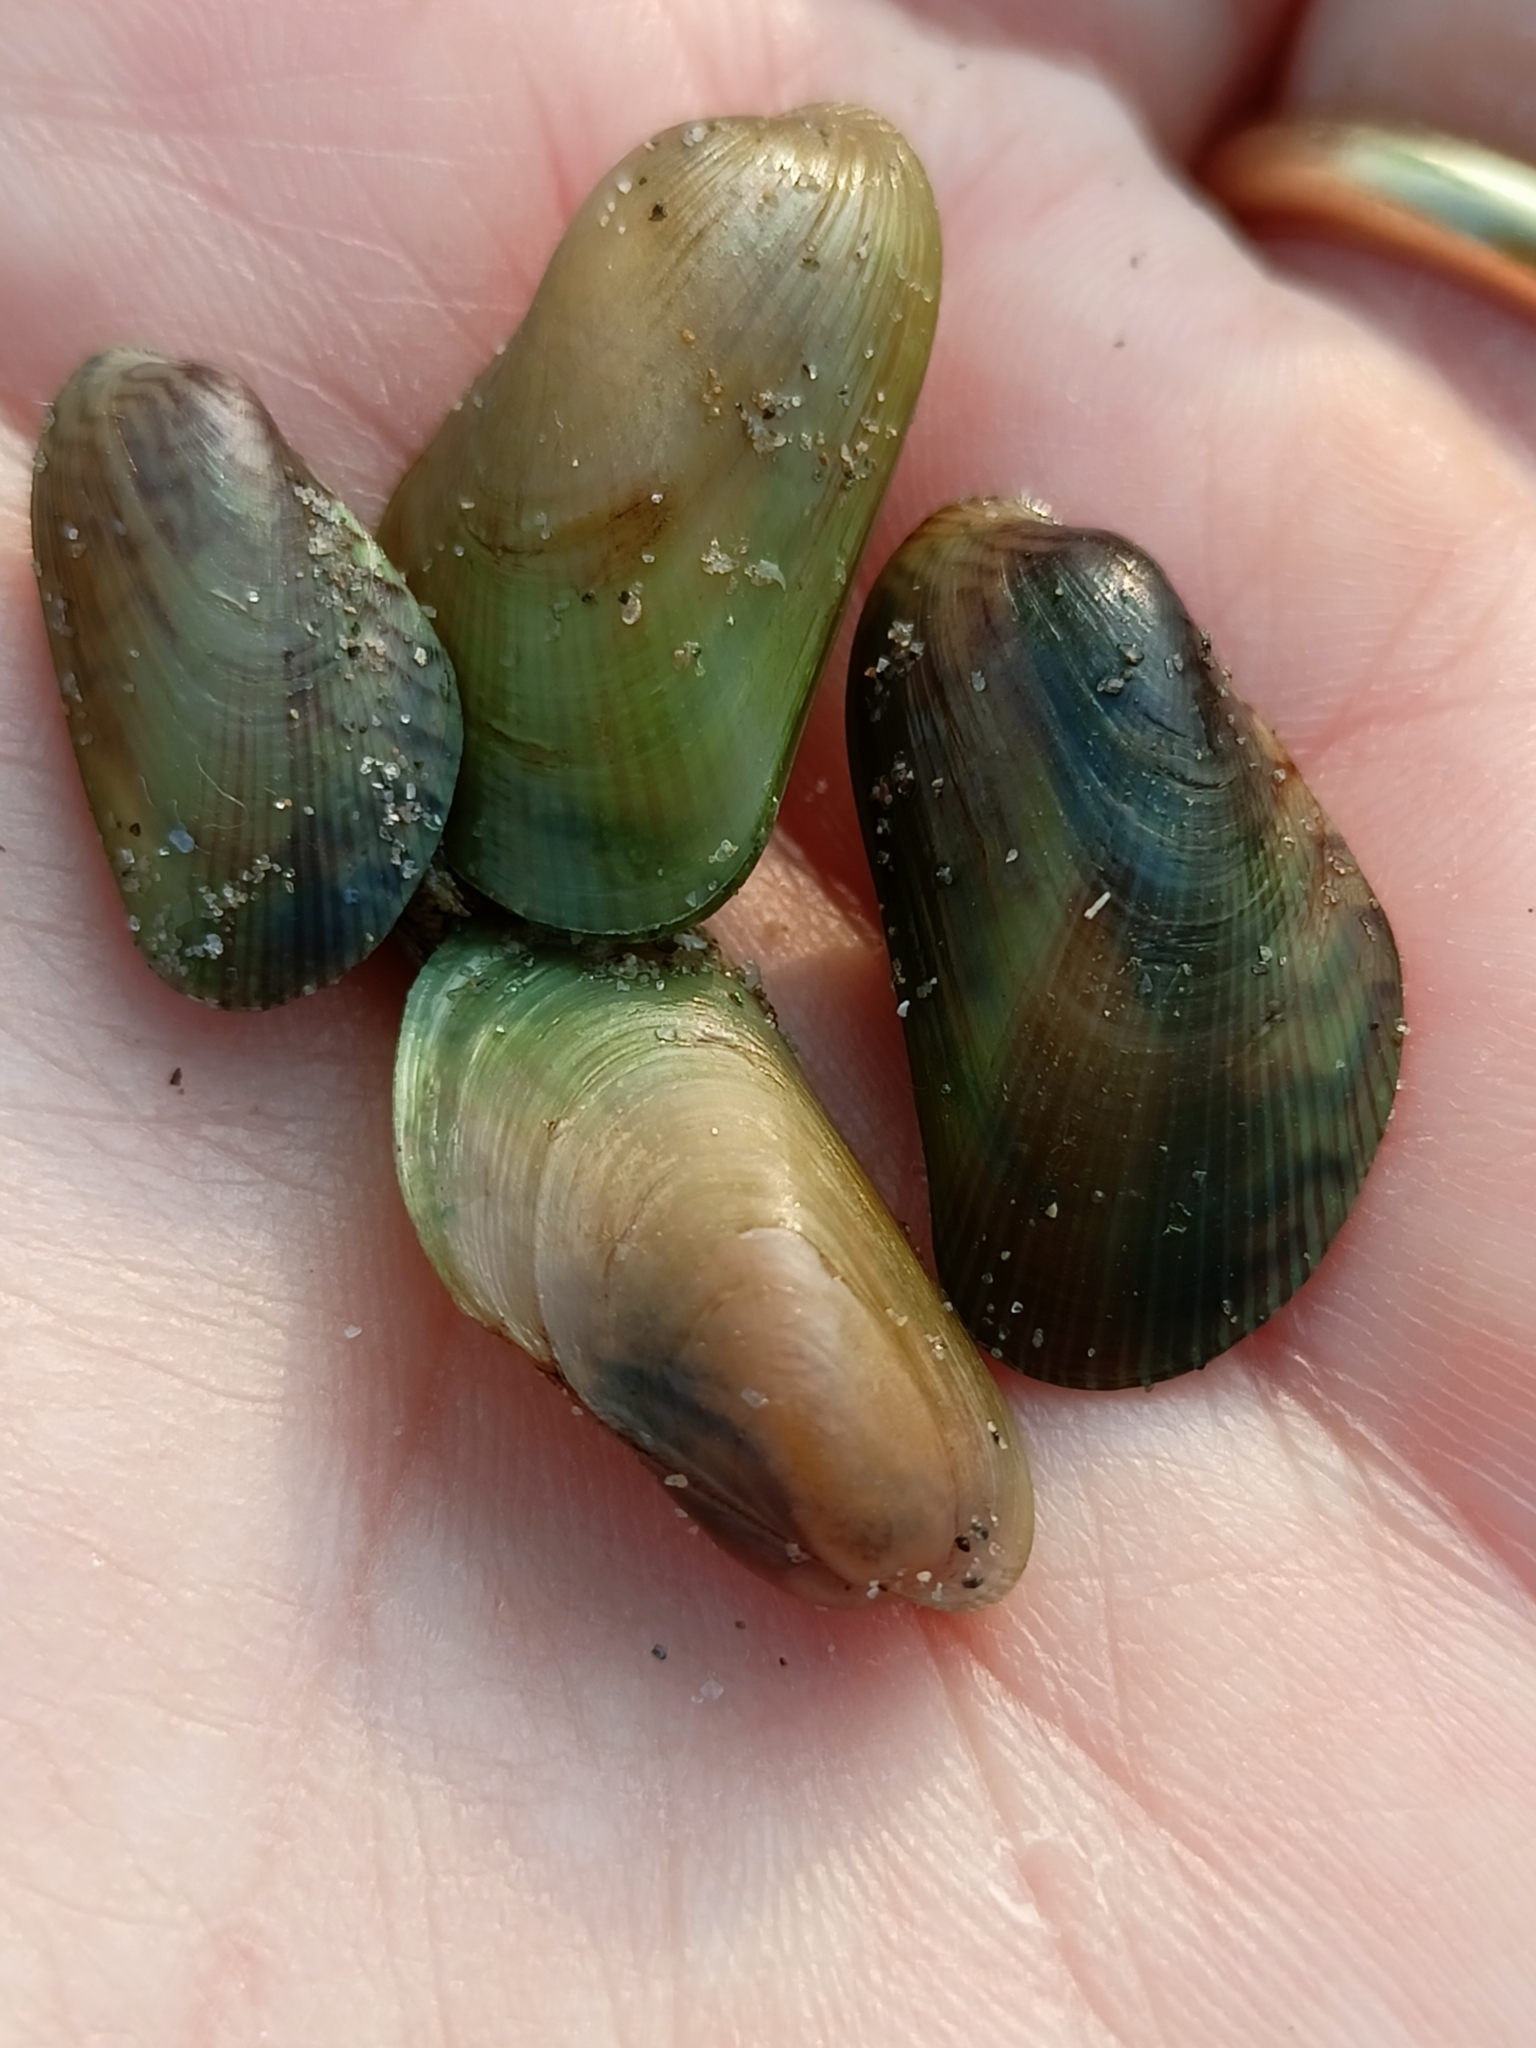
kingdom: Animalia
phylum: Mollusca
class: Bivalvia
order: Mytilida
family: Mytilidae
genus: Arcuatula
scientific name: Arcuatula senhousia
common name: Asian mussel
